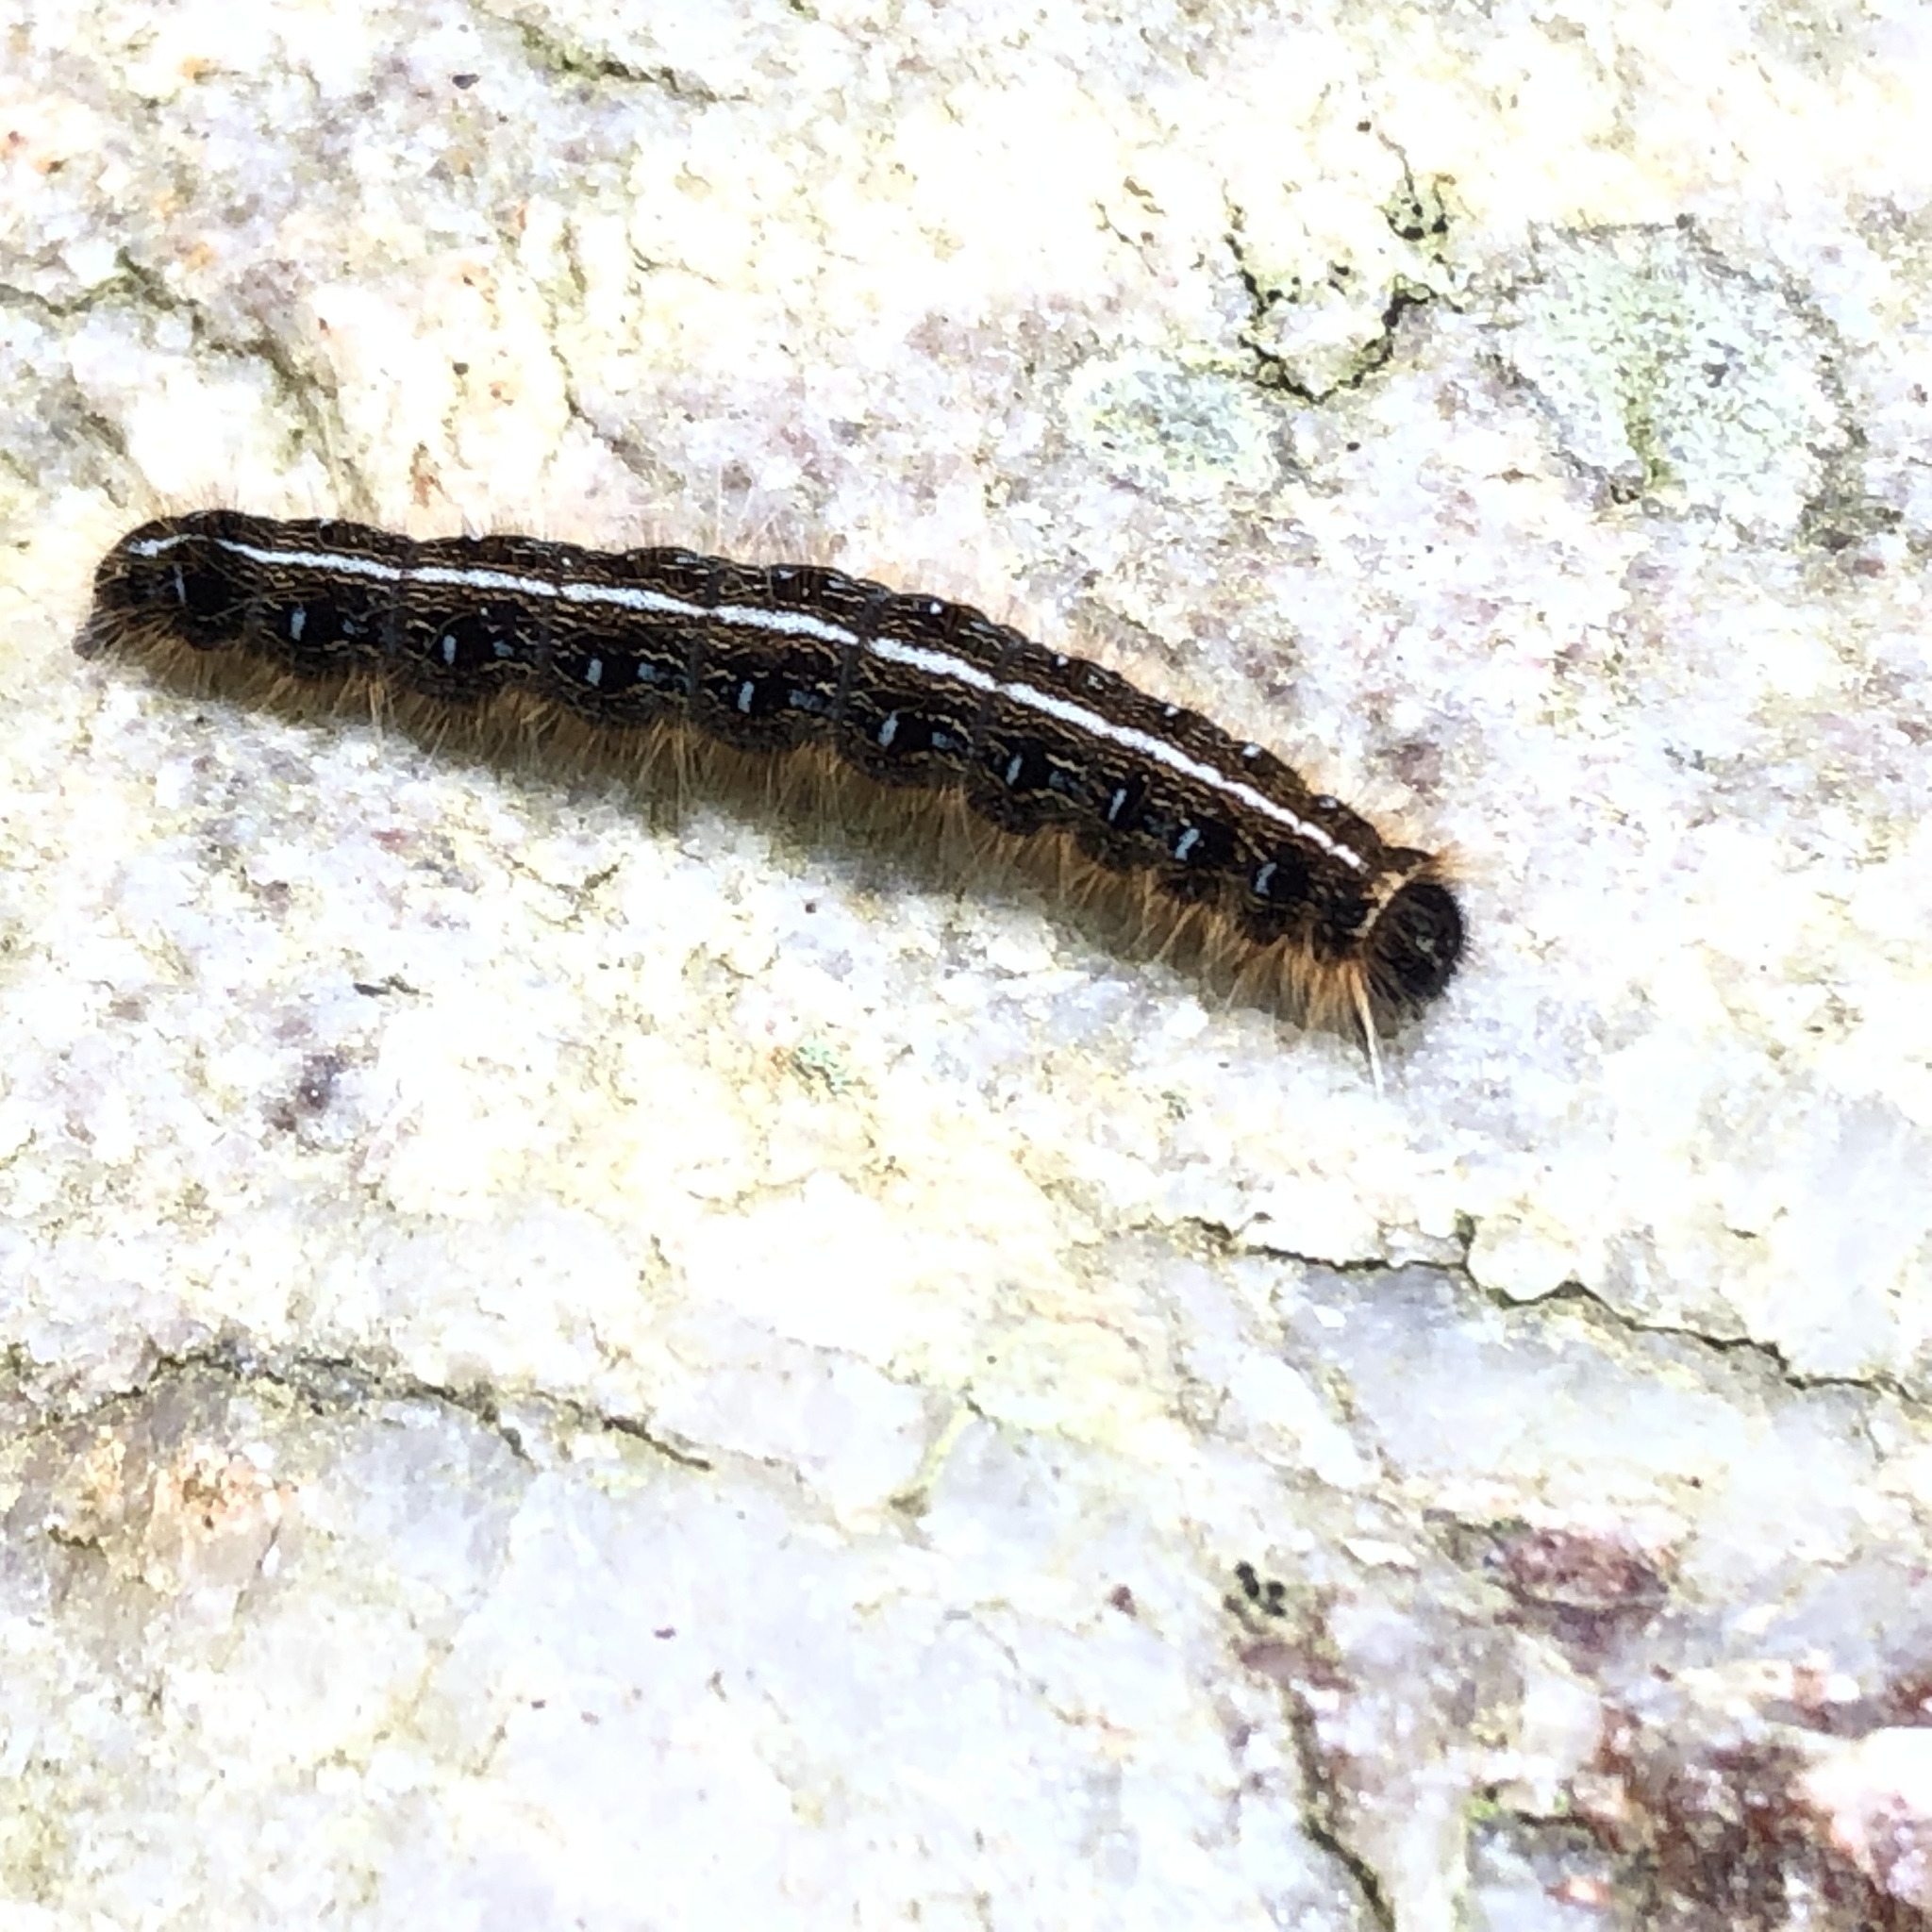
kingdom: Animalia
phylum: Arthropoda
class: Insecta
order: Lepidoptera
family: Lasiocampidae
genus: Malacosoma
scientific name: Malacosoma americana
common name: Eastern tent caterpillar moth
